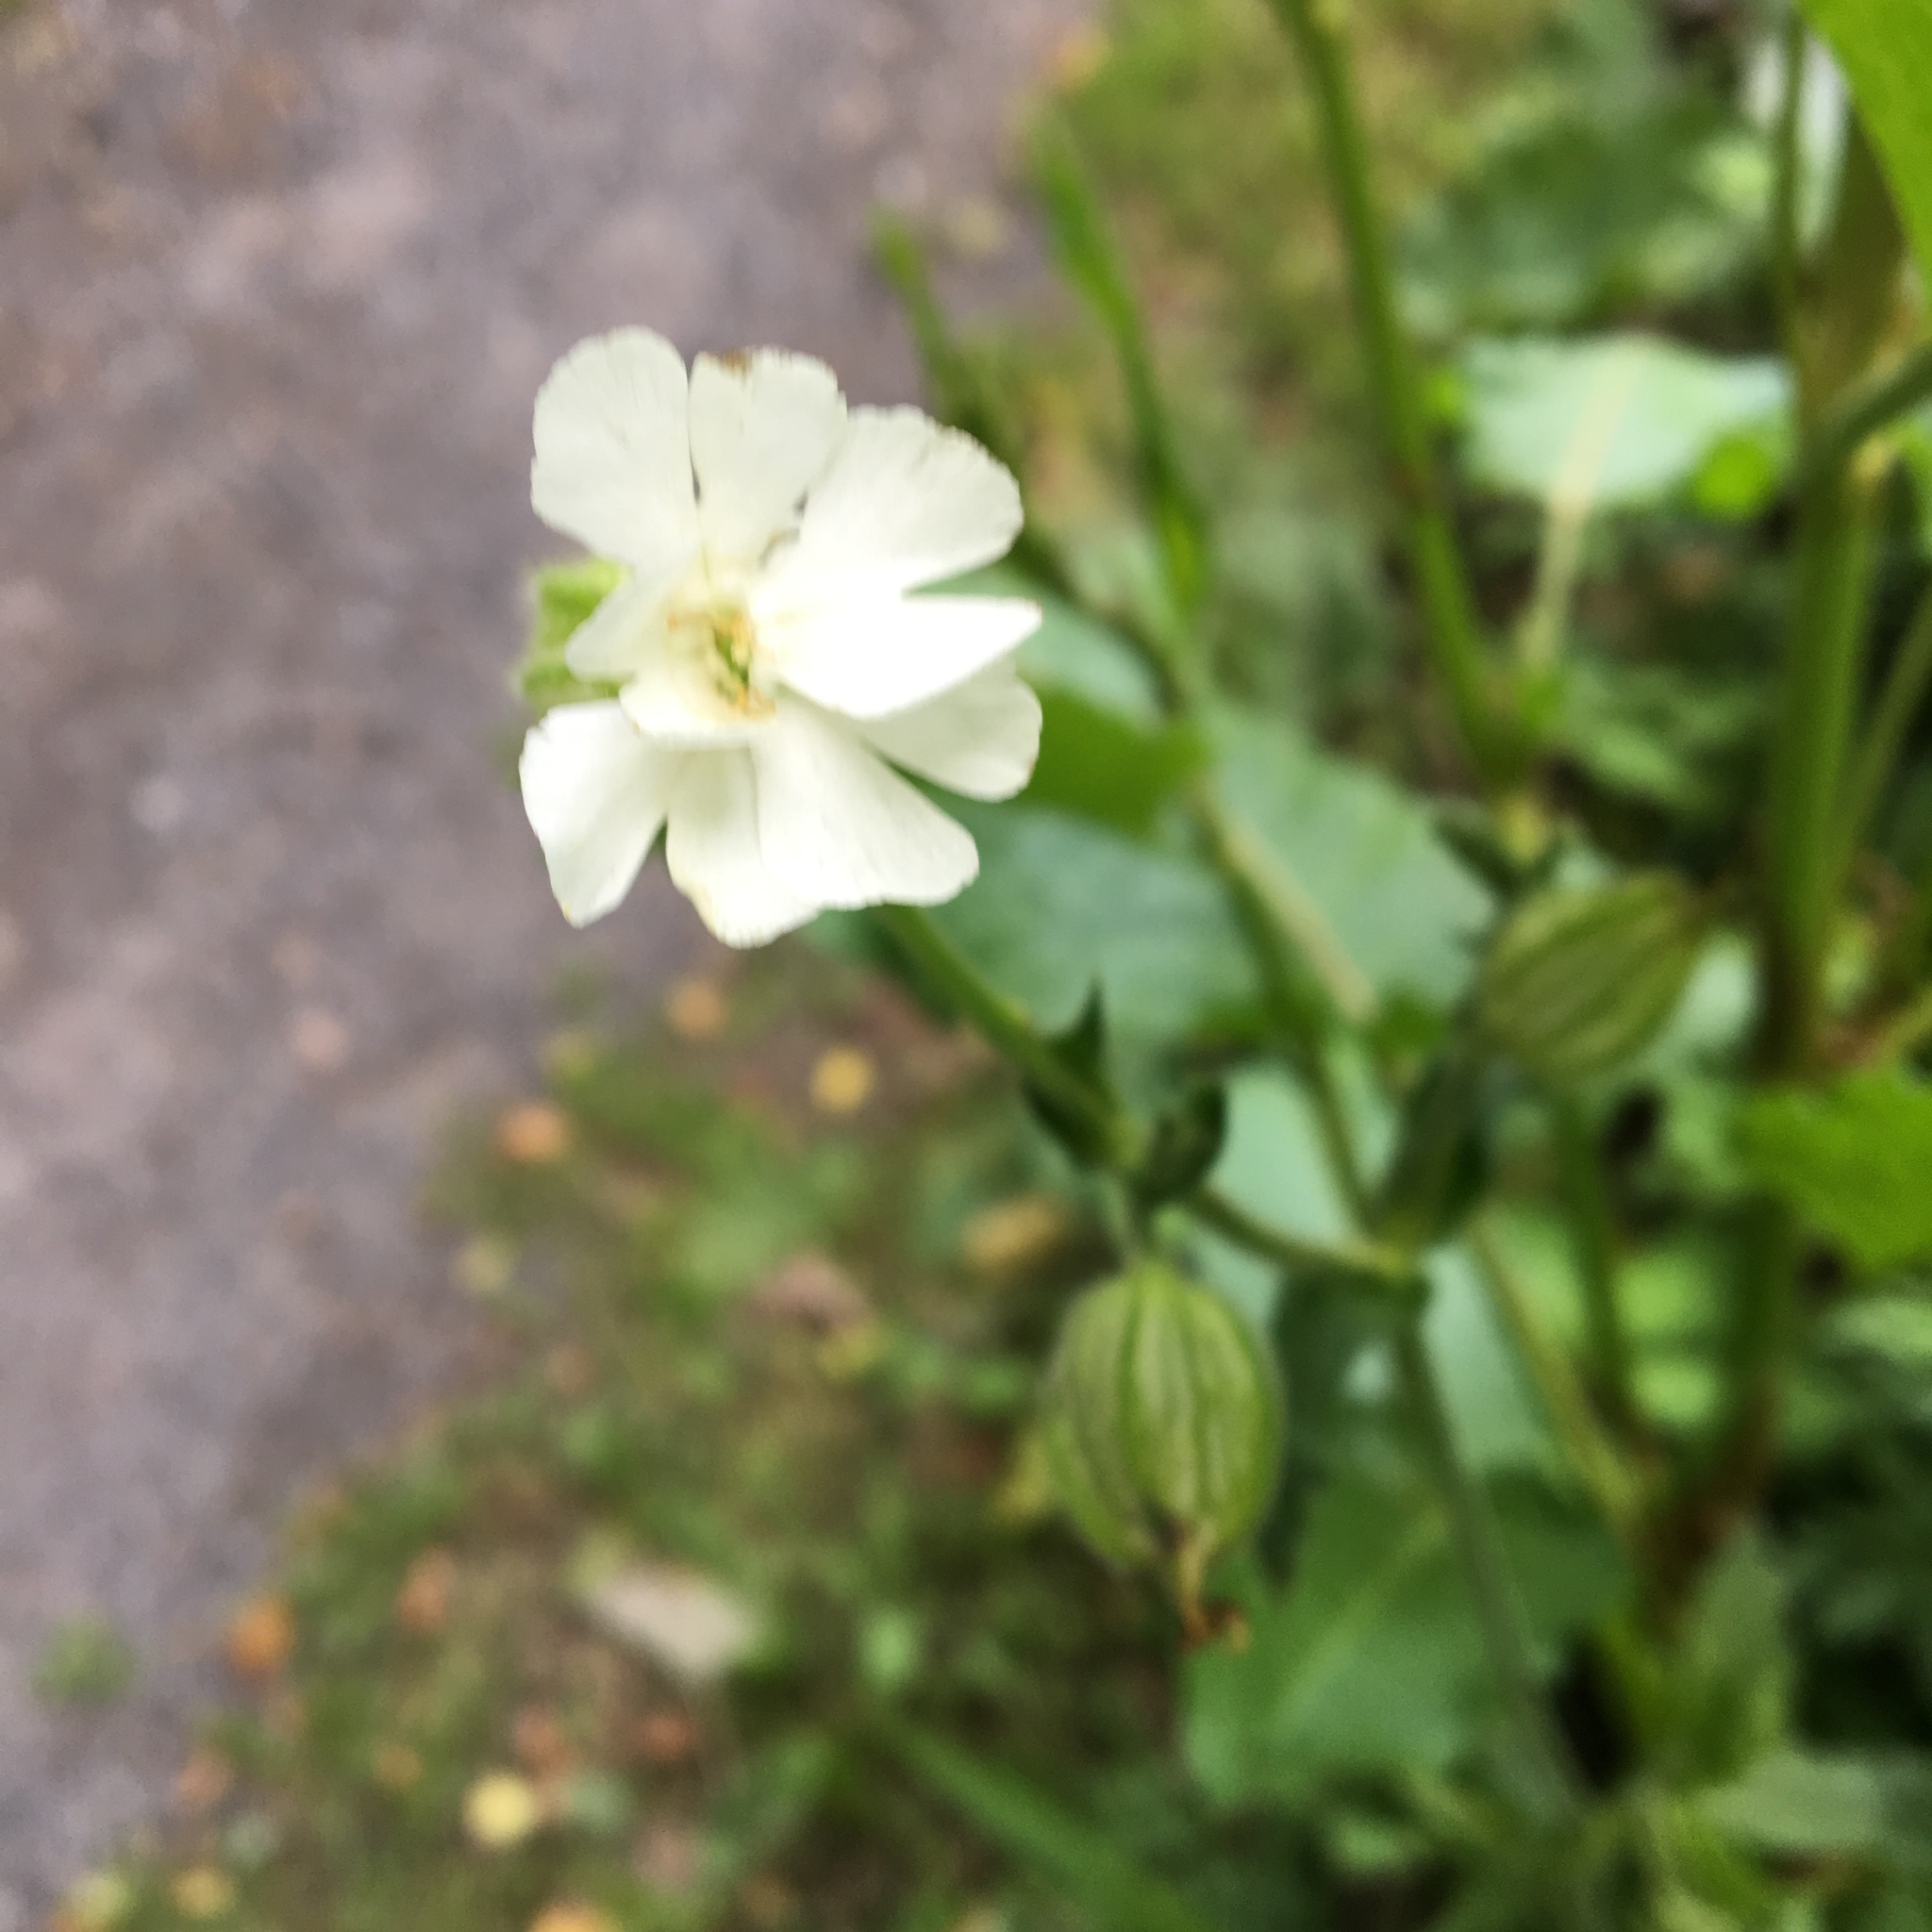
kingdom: Plantae
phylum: Tracheophyta
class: Magnoliopsida
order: Caryophyllales
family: Caryophyllaceae
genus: Silene
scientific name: Silene latifolia
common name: White campion
